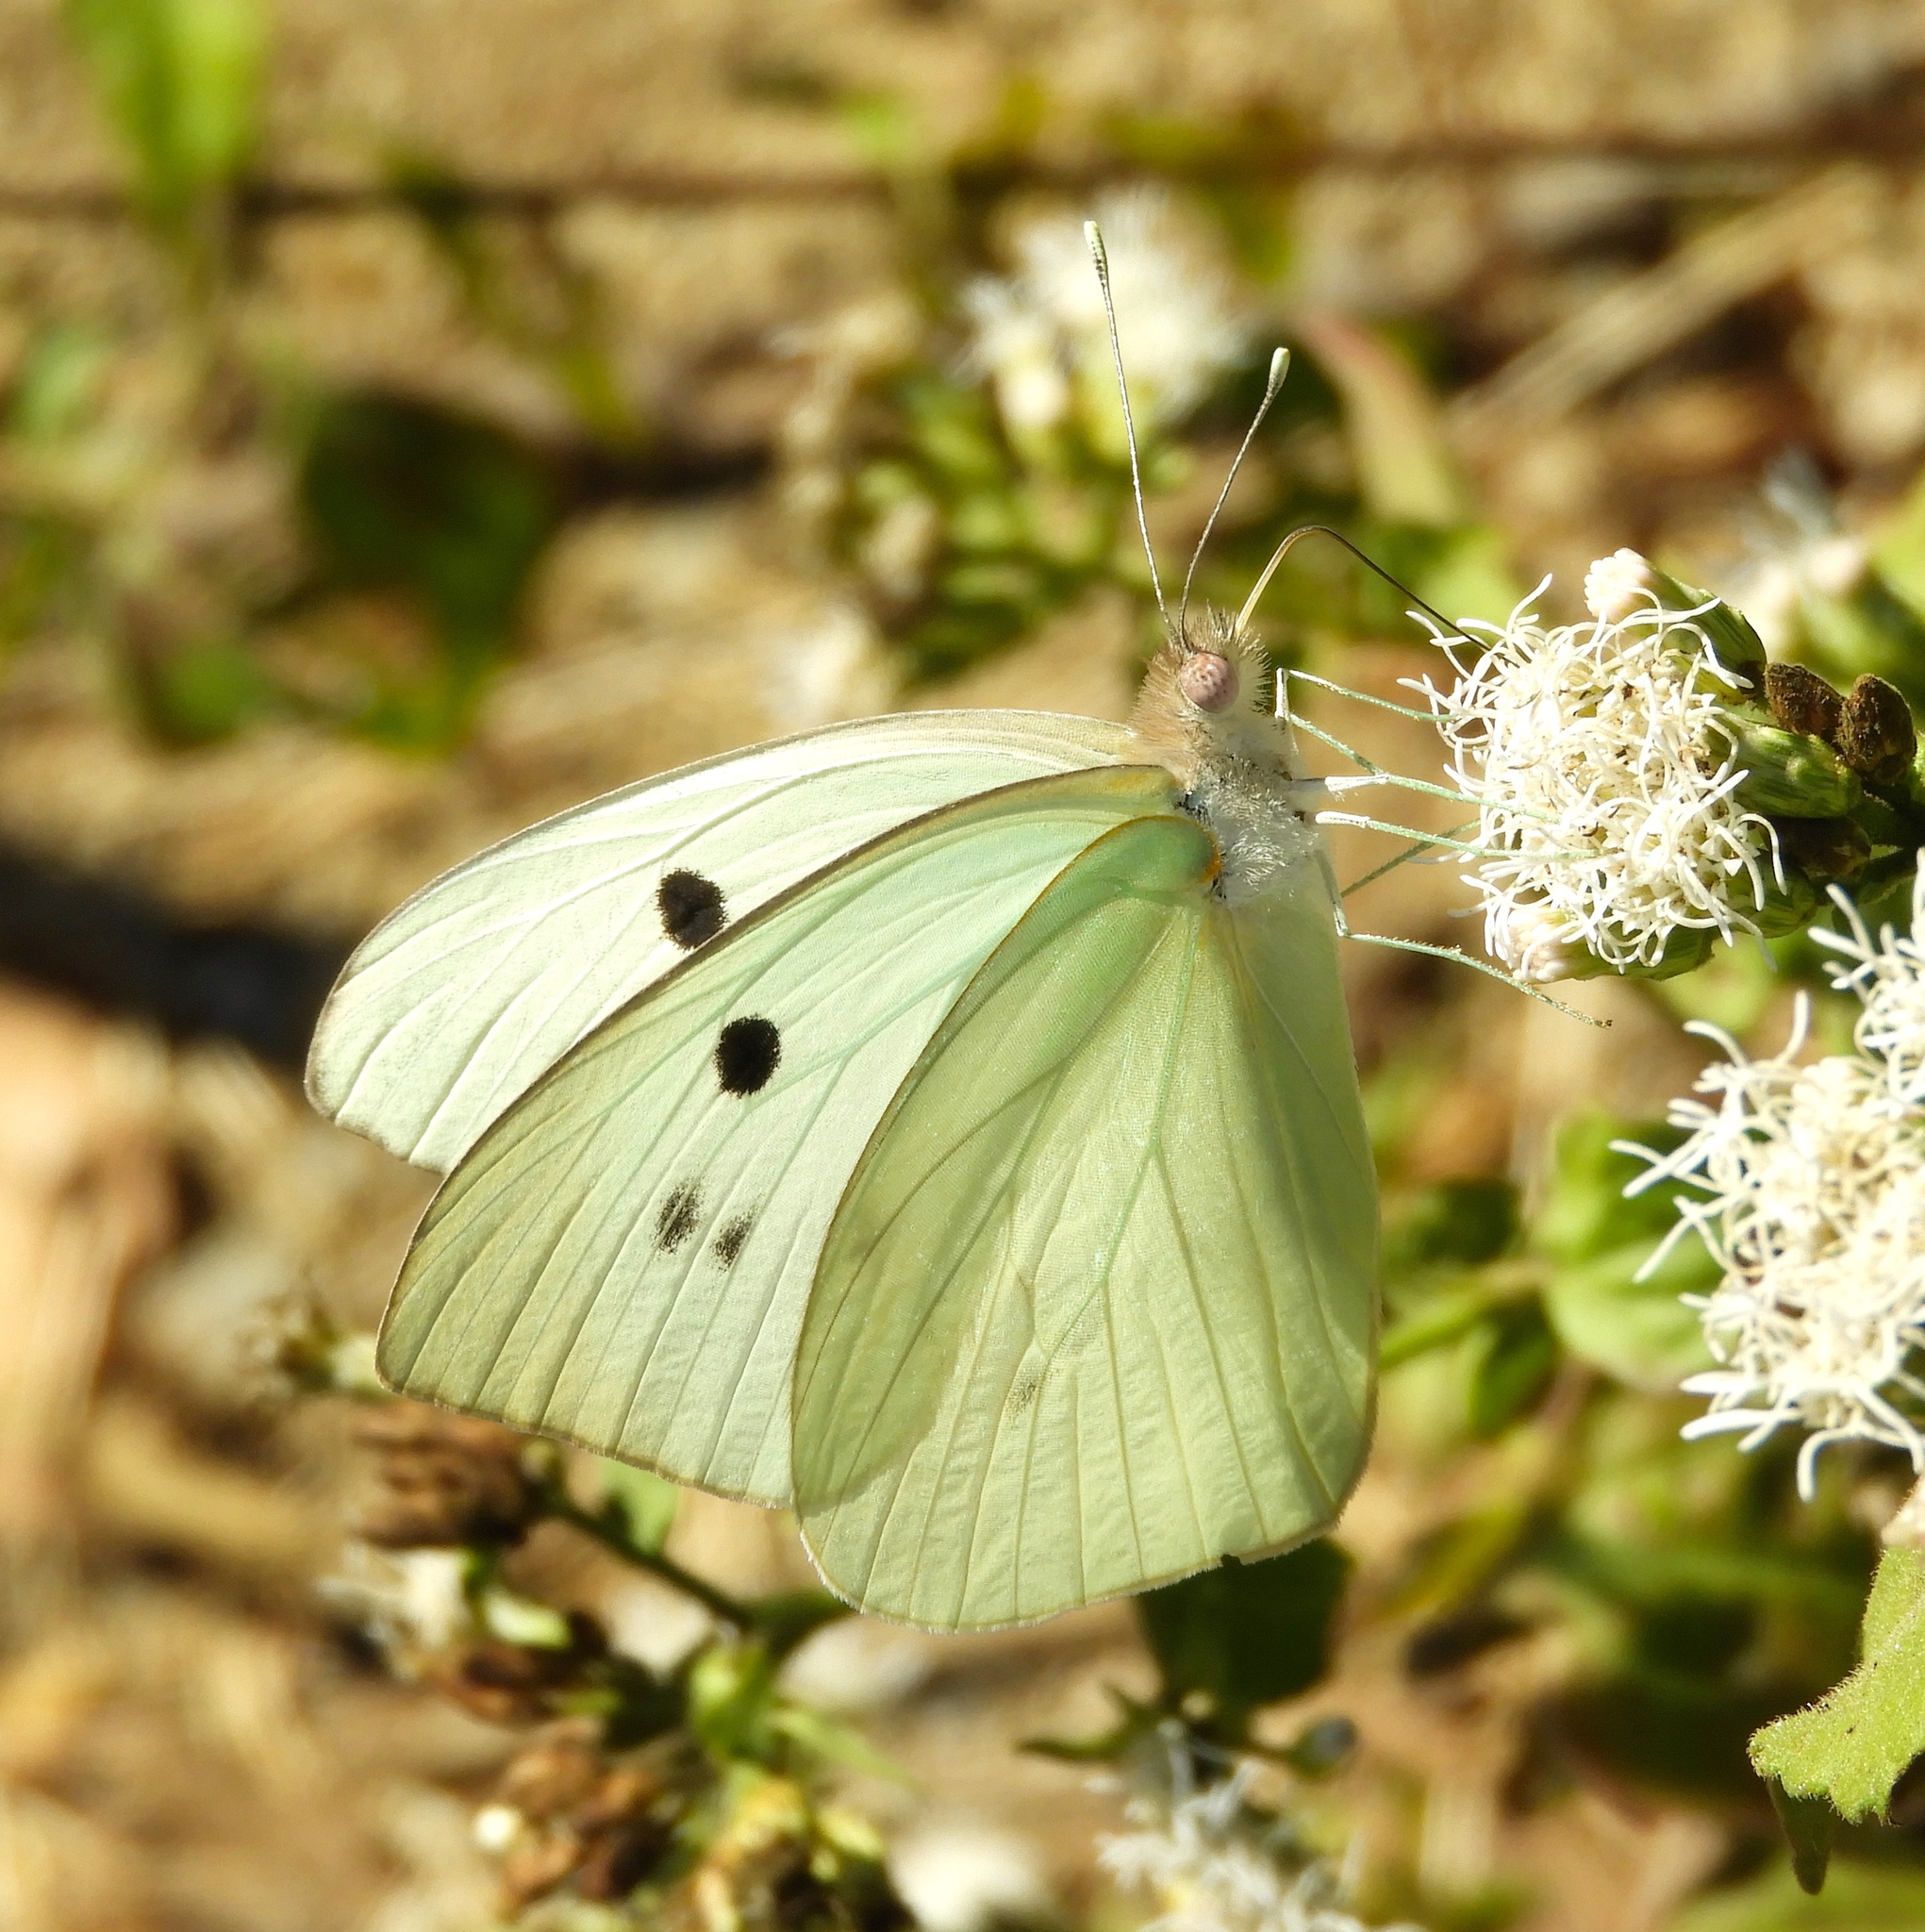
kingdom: Animalia
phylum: Arthropoda
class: Insecta
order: Lepidoptera
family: Pieridae
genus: Ganyra
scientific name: Ganyra josephina
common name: Giant white
